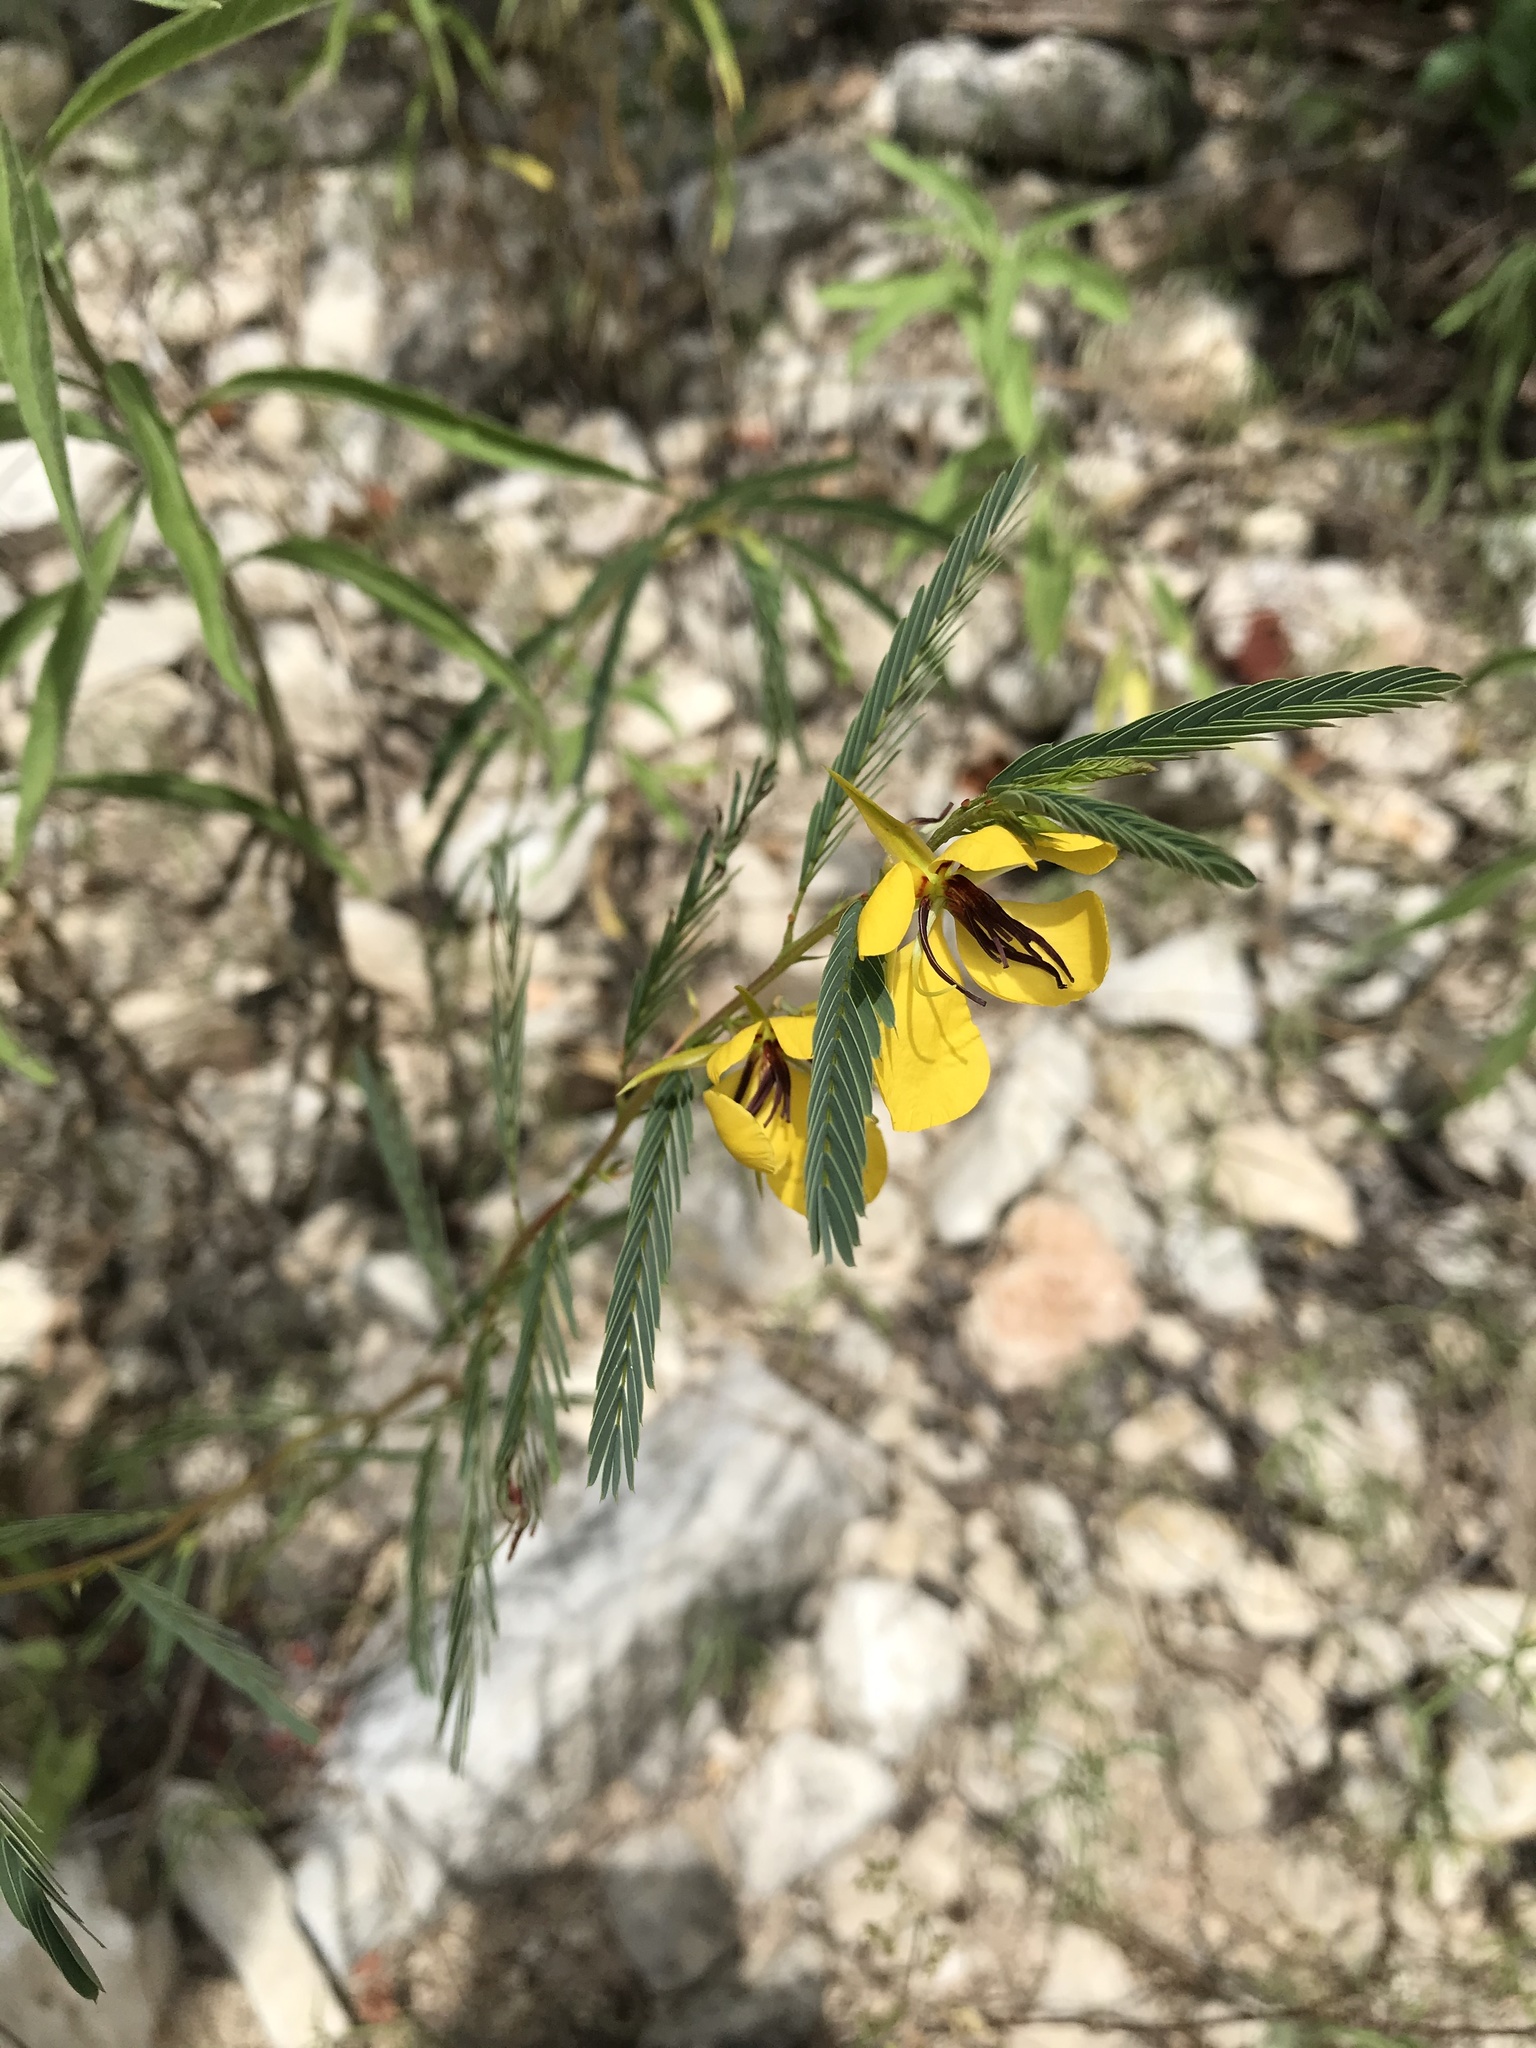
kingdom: Plantae
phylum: Tracheophyta
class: Magnoliopsida
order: Fabales
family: Fabaceae
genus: Chamaecrista
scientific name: Chamaecrista fasciculata
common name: Golden cassia
